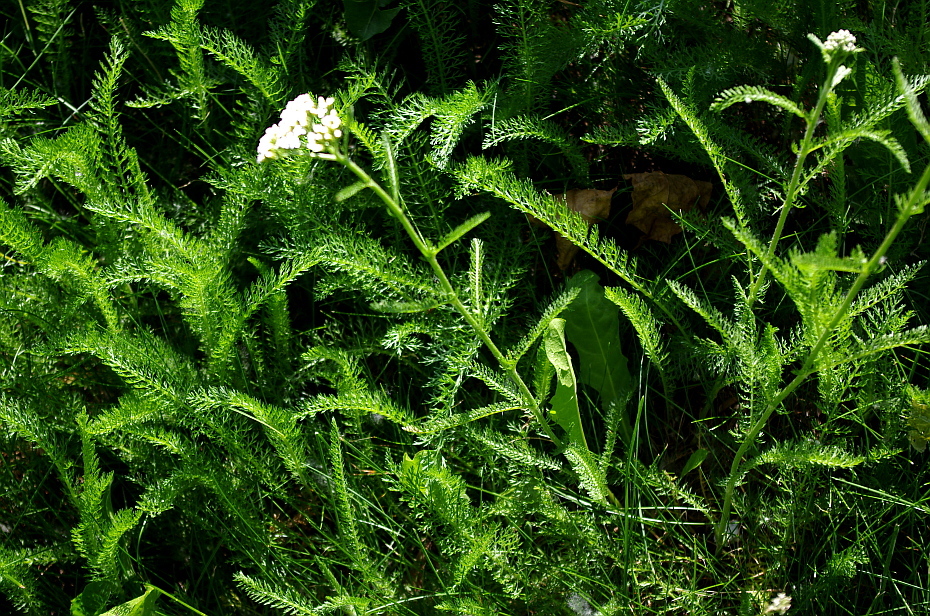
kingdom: Plantae
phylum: Tracheophyta
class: Magnoliopsida
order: Asterales
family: Asteraceae
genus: Achillea
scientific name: Achillea millefolium
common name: Yarrow
